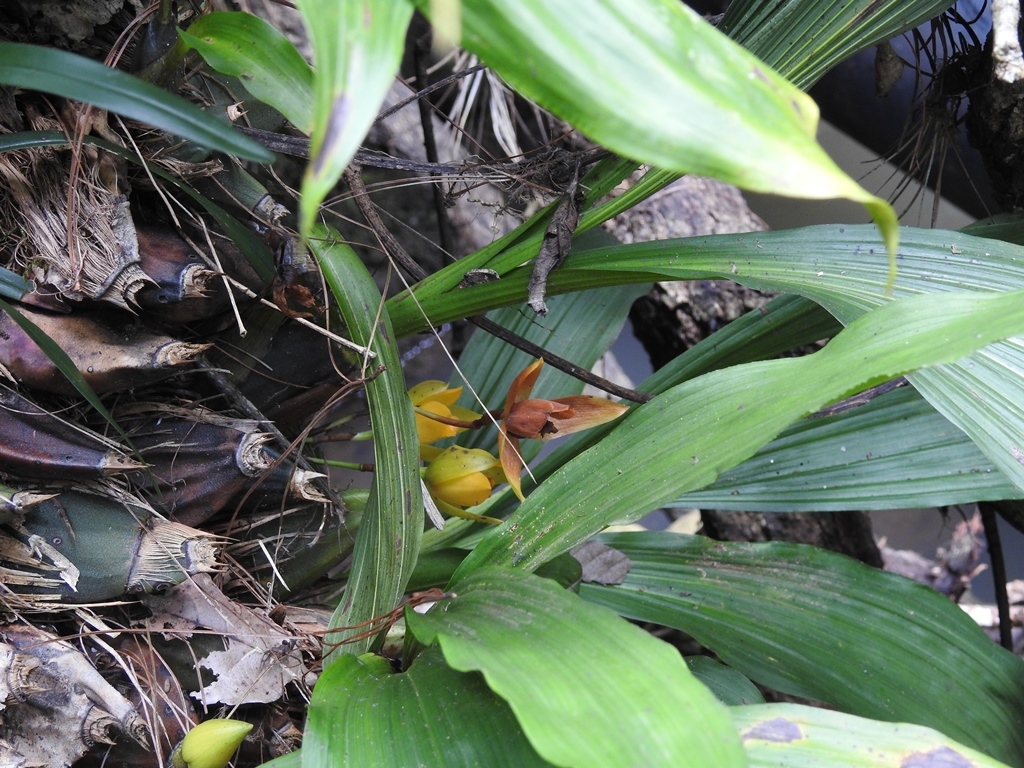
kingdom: Plantae
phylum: Tracheophyta
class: Liliopsida
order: Asparagales
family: Orchidaceae
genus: Lycaste
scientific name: Lycaste cruenta
